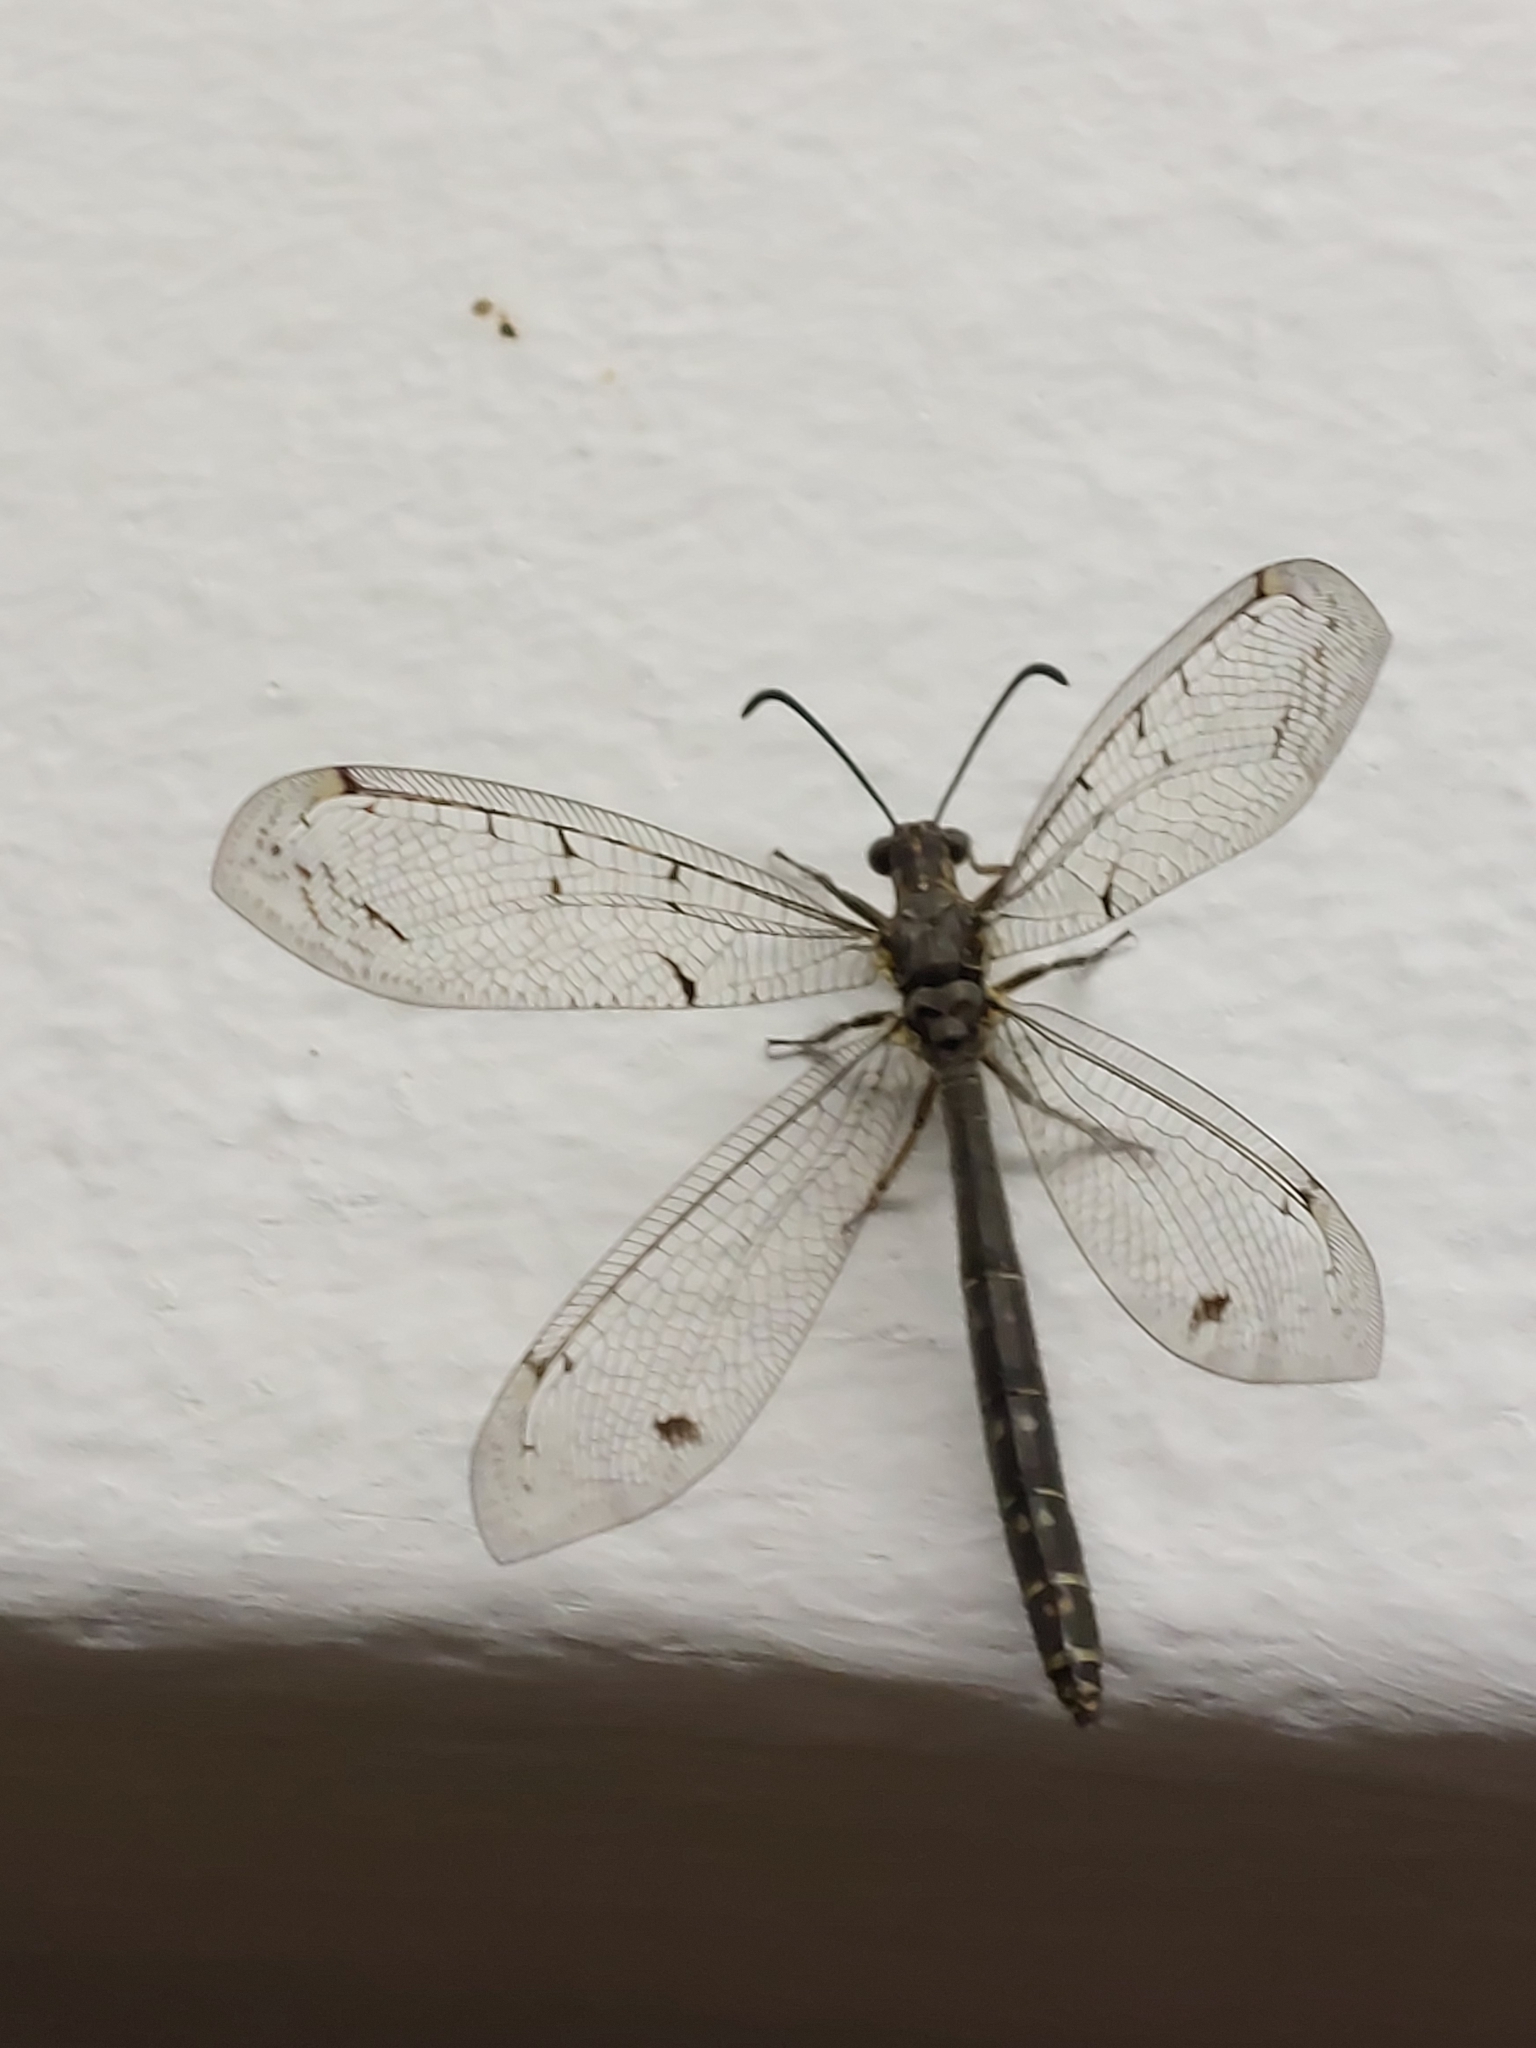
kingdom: Animalia
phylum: Arthropoda
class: Insecta
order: Neuroptera
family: Myrmeleontidae
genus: Distoleon
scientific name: Distoleon tetragrammicus
